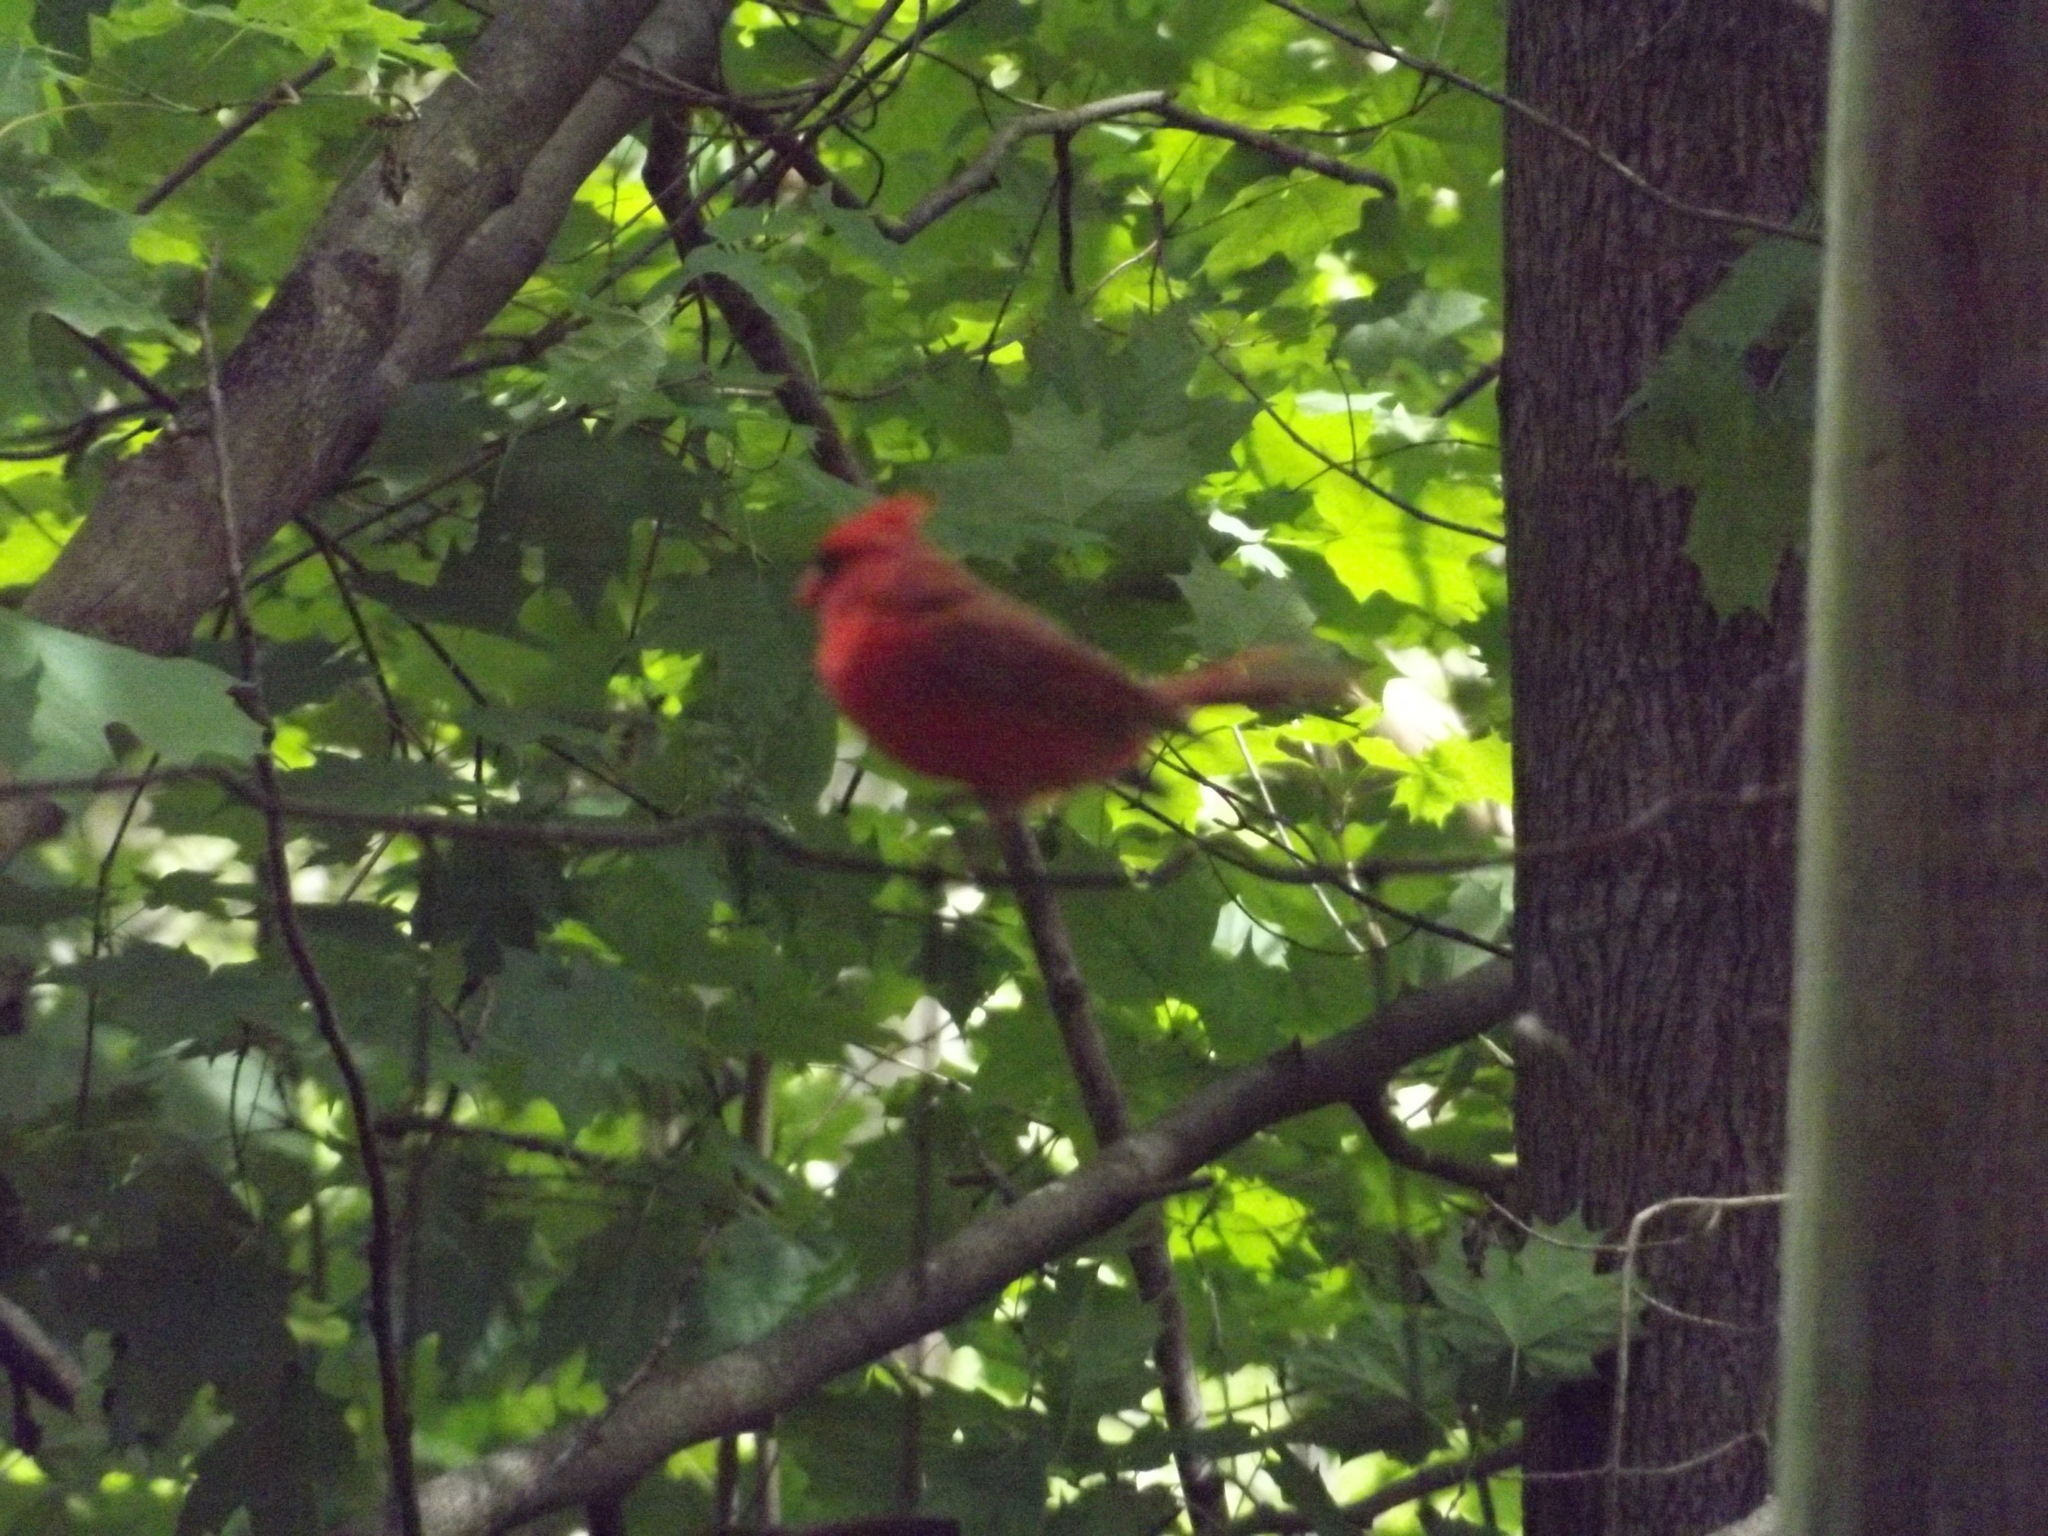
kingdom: Animalia
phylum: Chordata
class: Aves
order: Passeriformes
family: Cardinalidae
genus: Cardinalis
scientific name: Cardinalis cardinalis
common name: Northern cardinal
